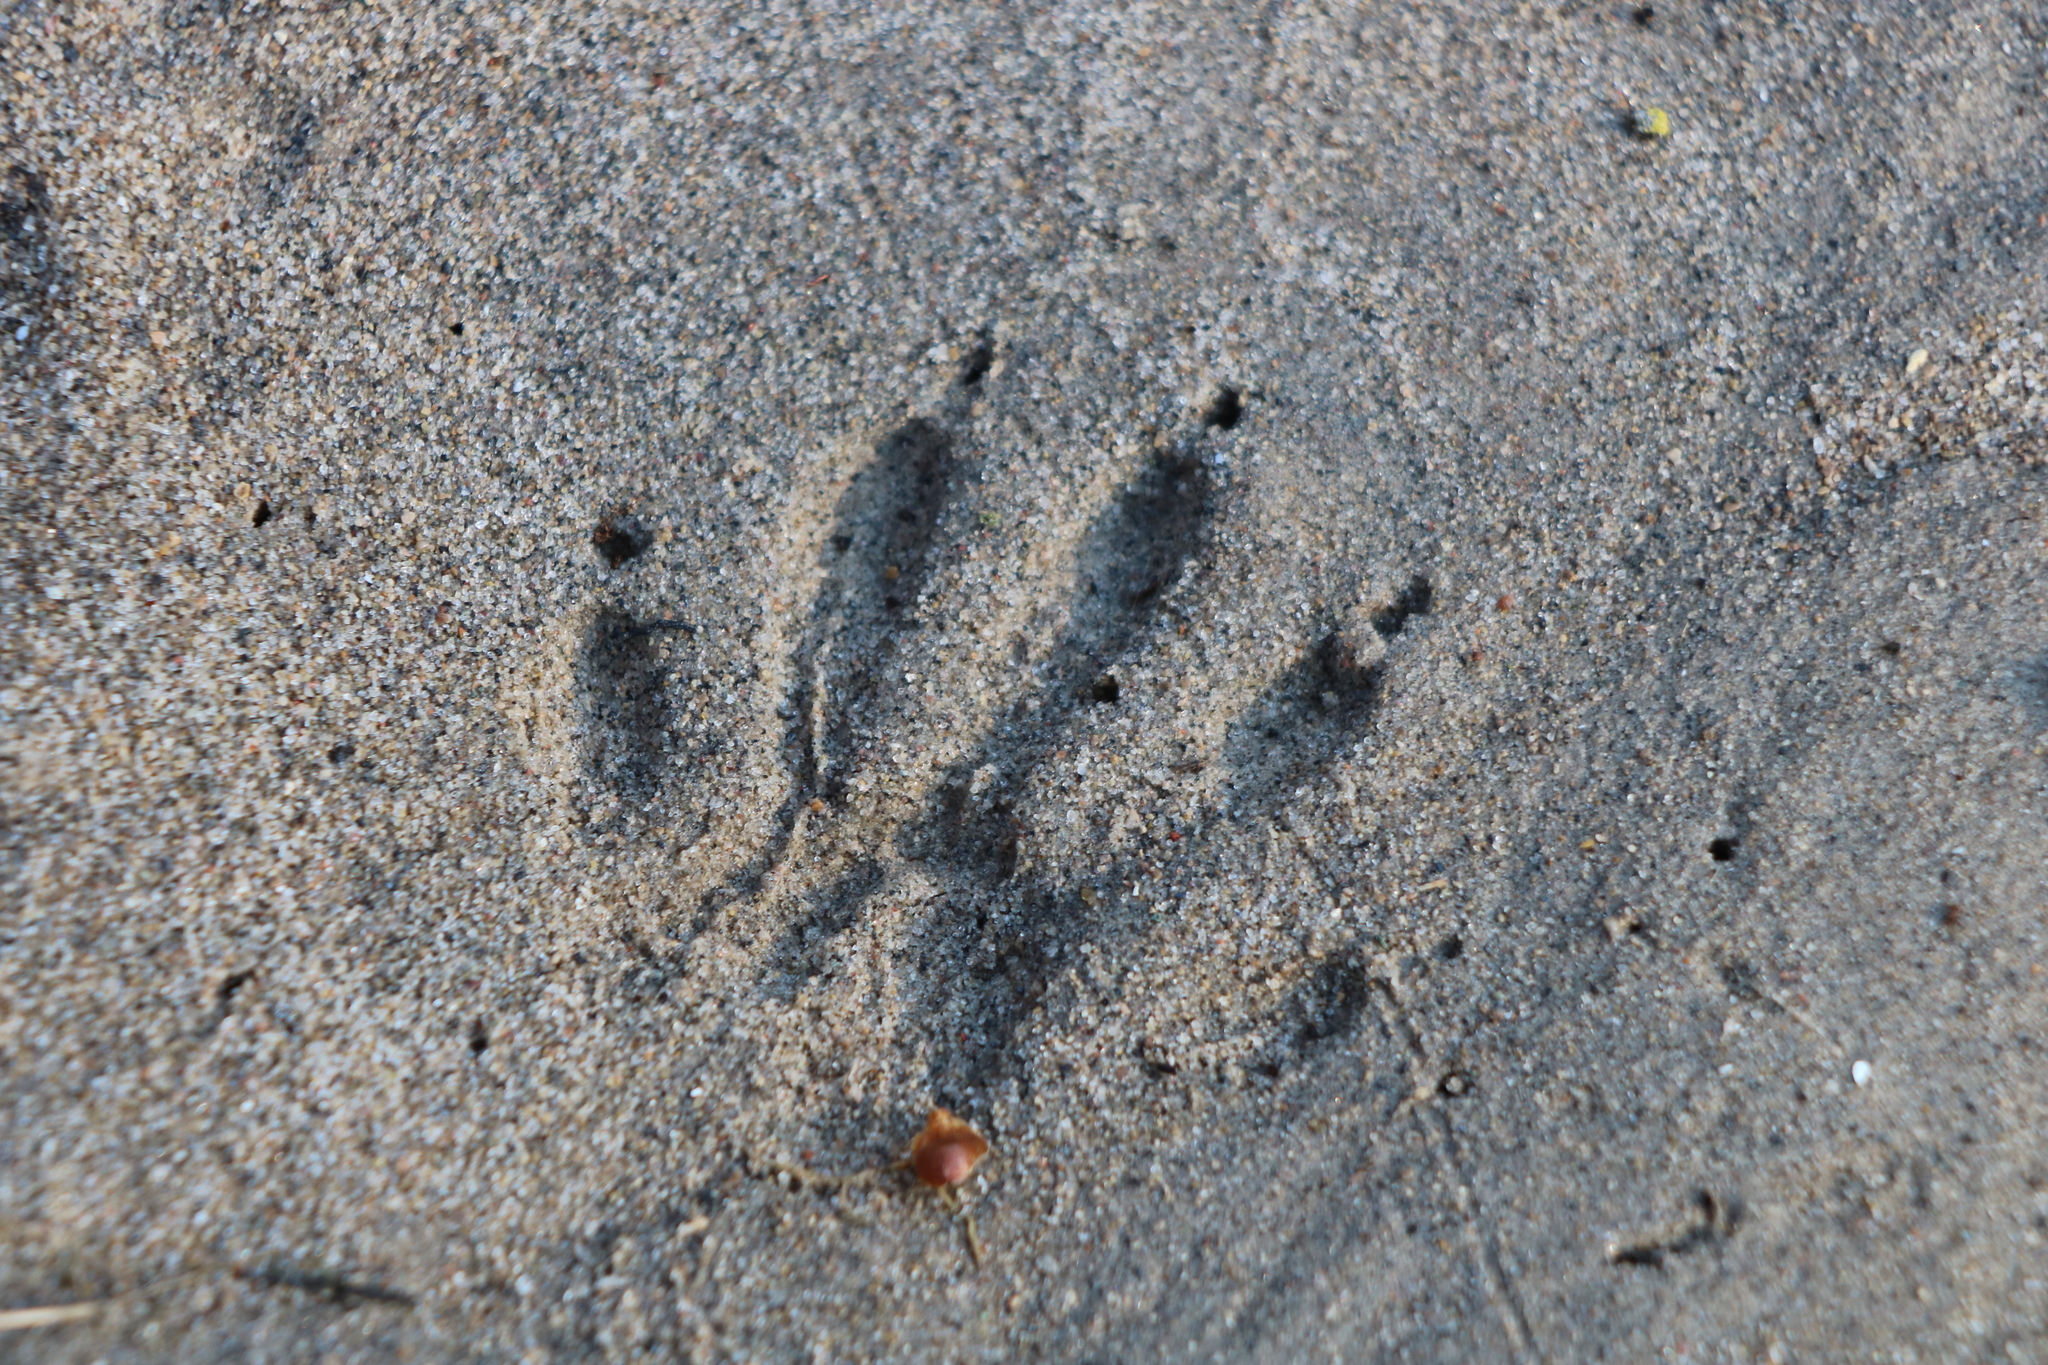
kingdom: Animalia
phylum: Chordata
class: Mammalia
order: Carnivora
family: Procyonidae
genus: Procyon
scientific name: Procyon lotor
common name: Raccoon
